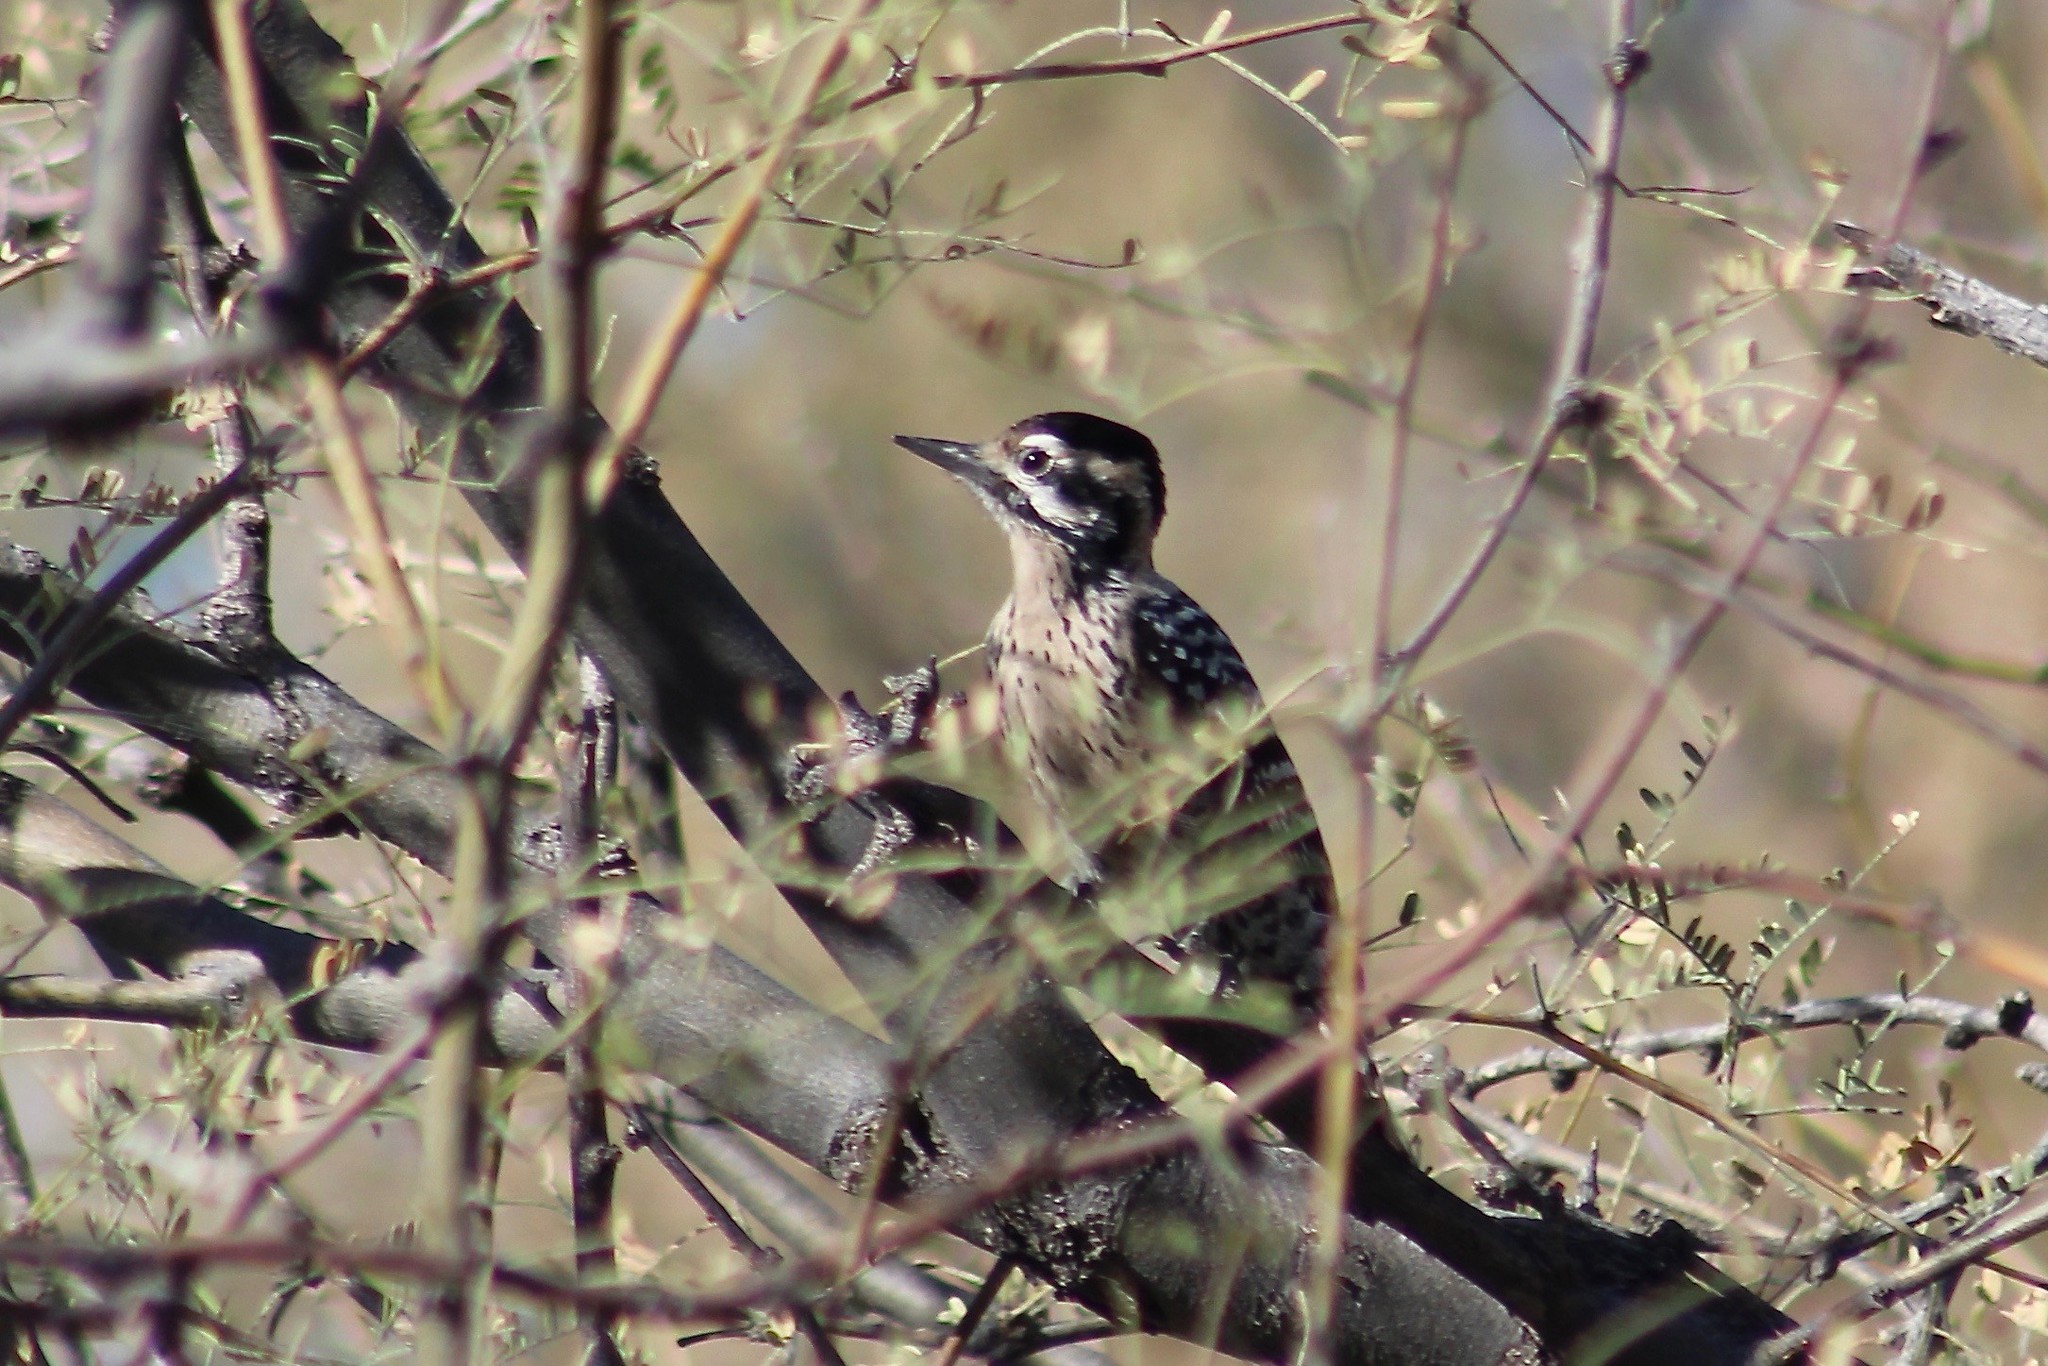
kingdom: Animalia
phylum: Chordata
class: Aves
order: Piciformes
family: Picidae
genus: Dryobates
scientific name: Dryobates scalaris
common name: Ladder-backed woodpecker
